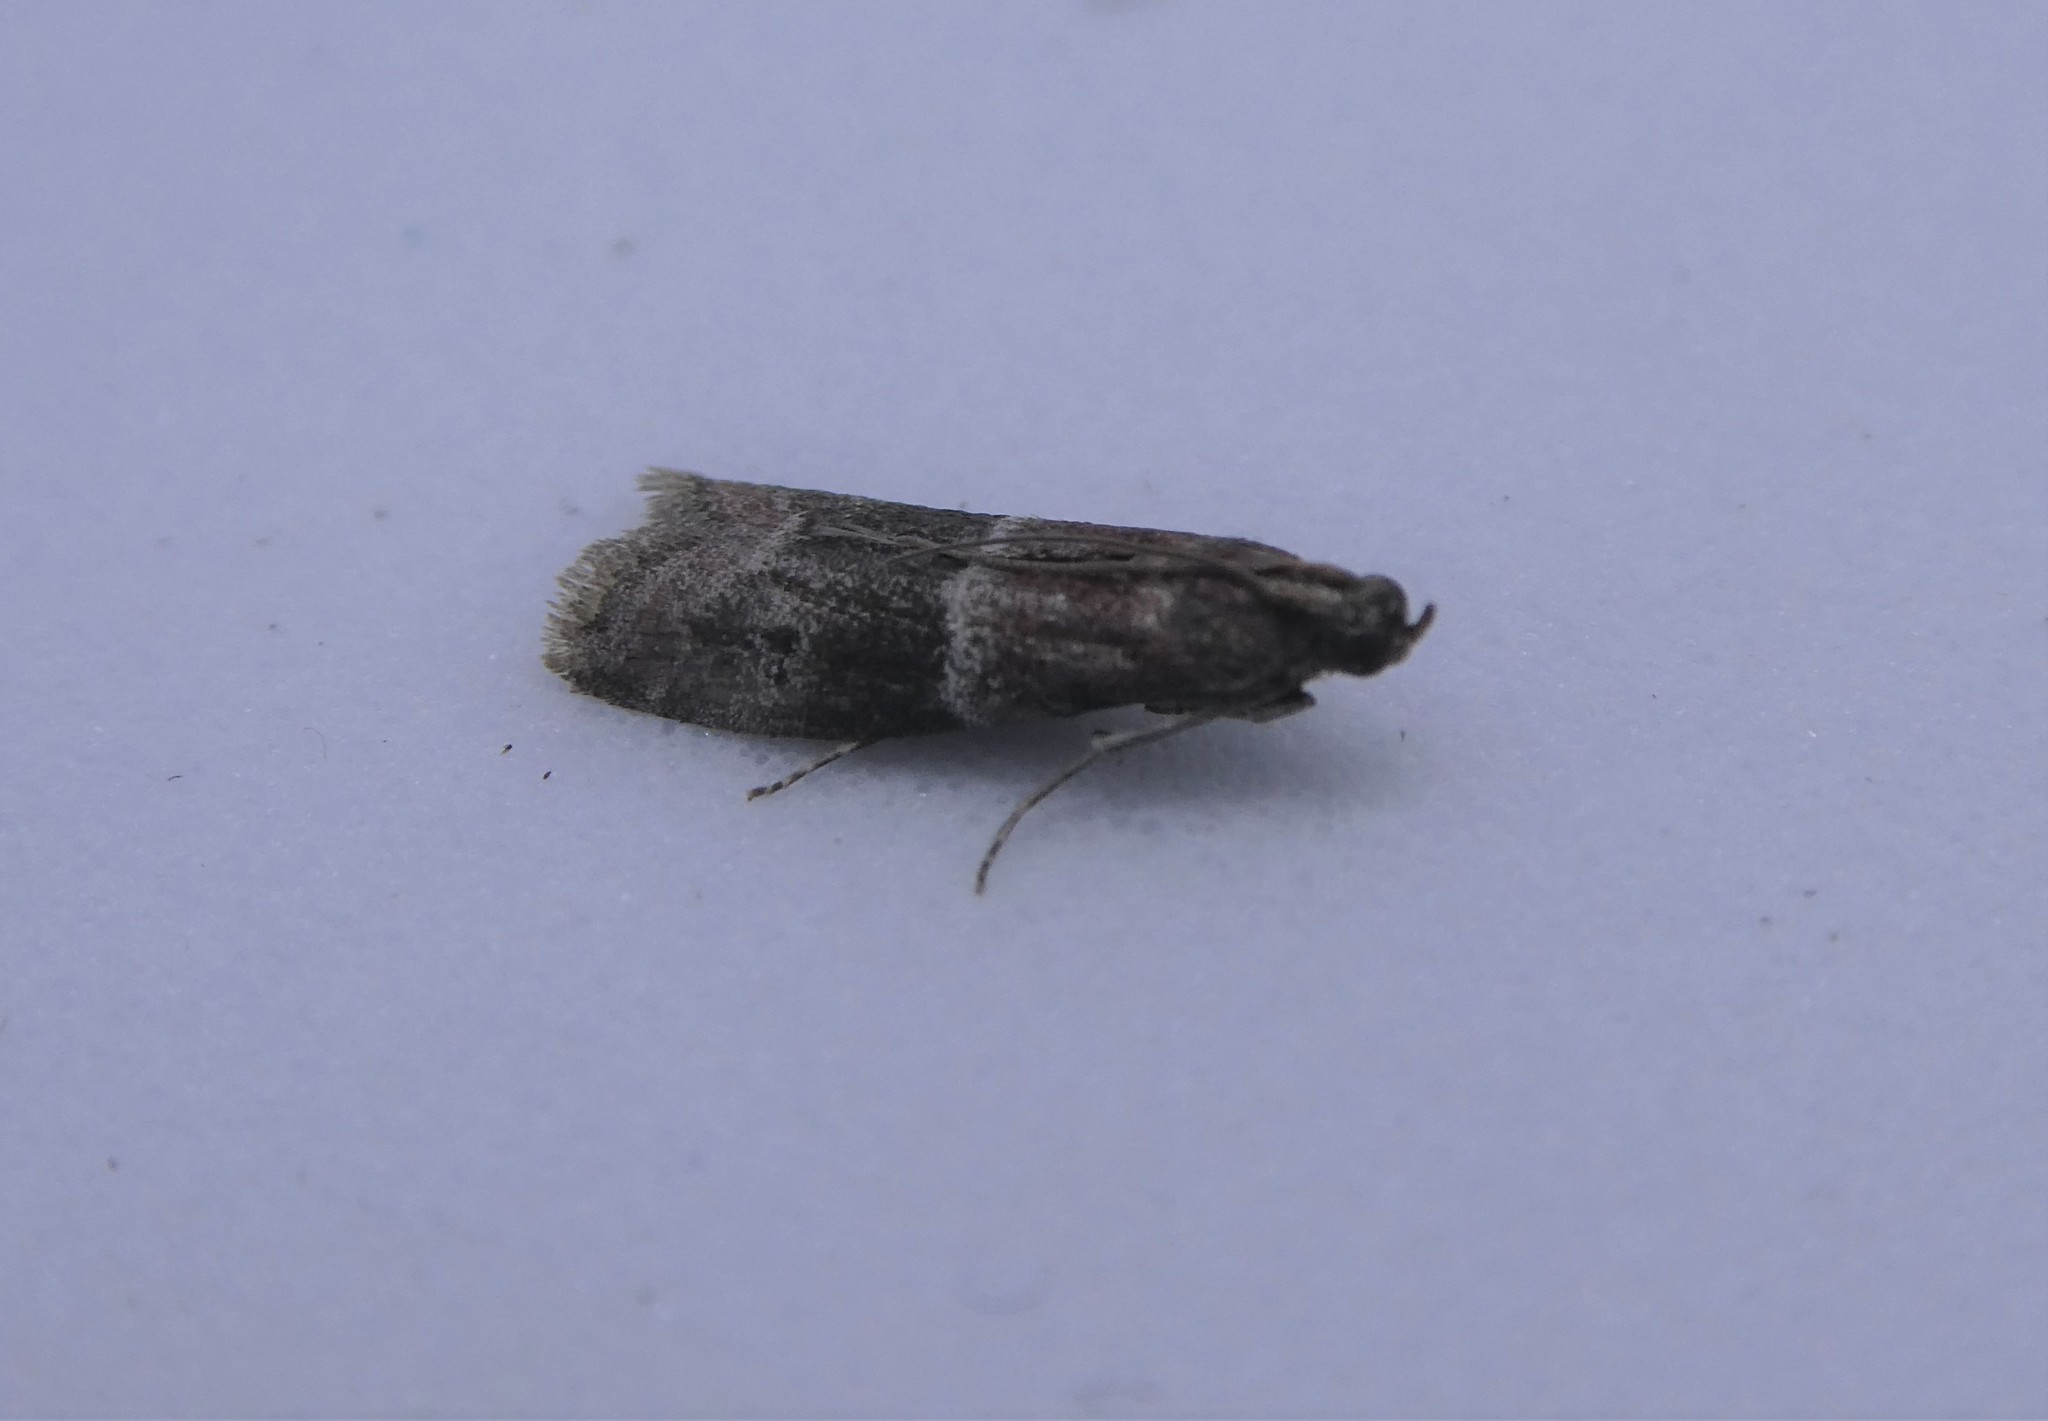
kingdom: Animalia
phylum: Arthropoda
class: Insecta
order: Lepidoptera
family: Pyralidae
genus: Moodna
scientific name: Moodna ostrinella
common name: Darker moodna moth
